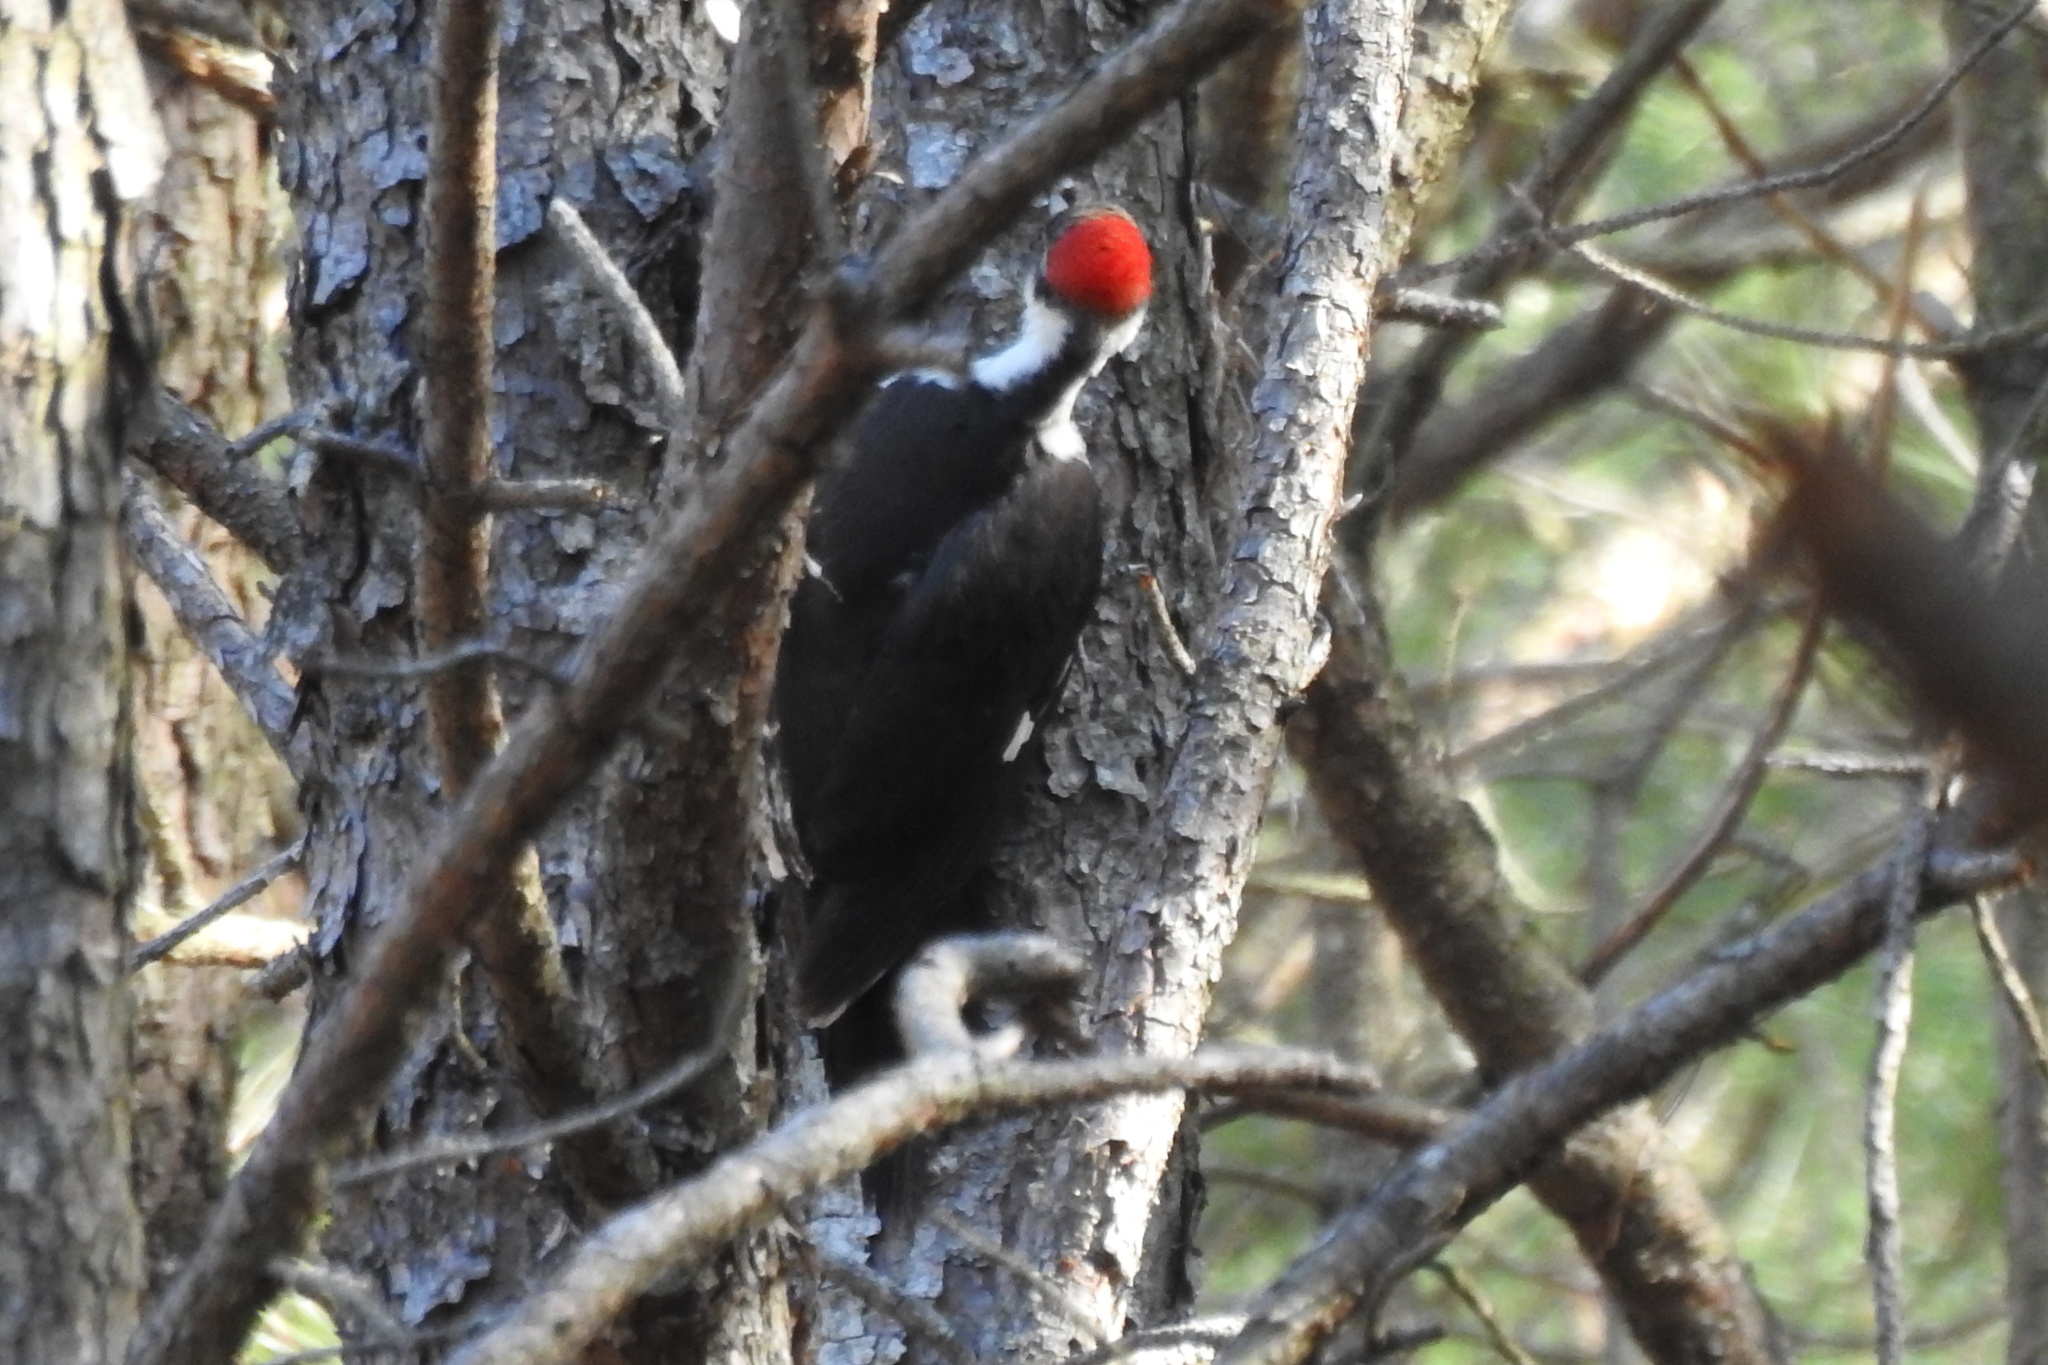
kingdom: Animalia
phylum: Chordata
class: Aves
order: Piciformes
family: Picidae
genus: Dryocopus
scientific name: Dryocopus pileatus
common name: Pileated woodpecker
